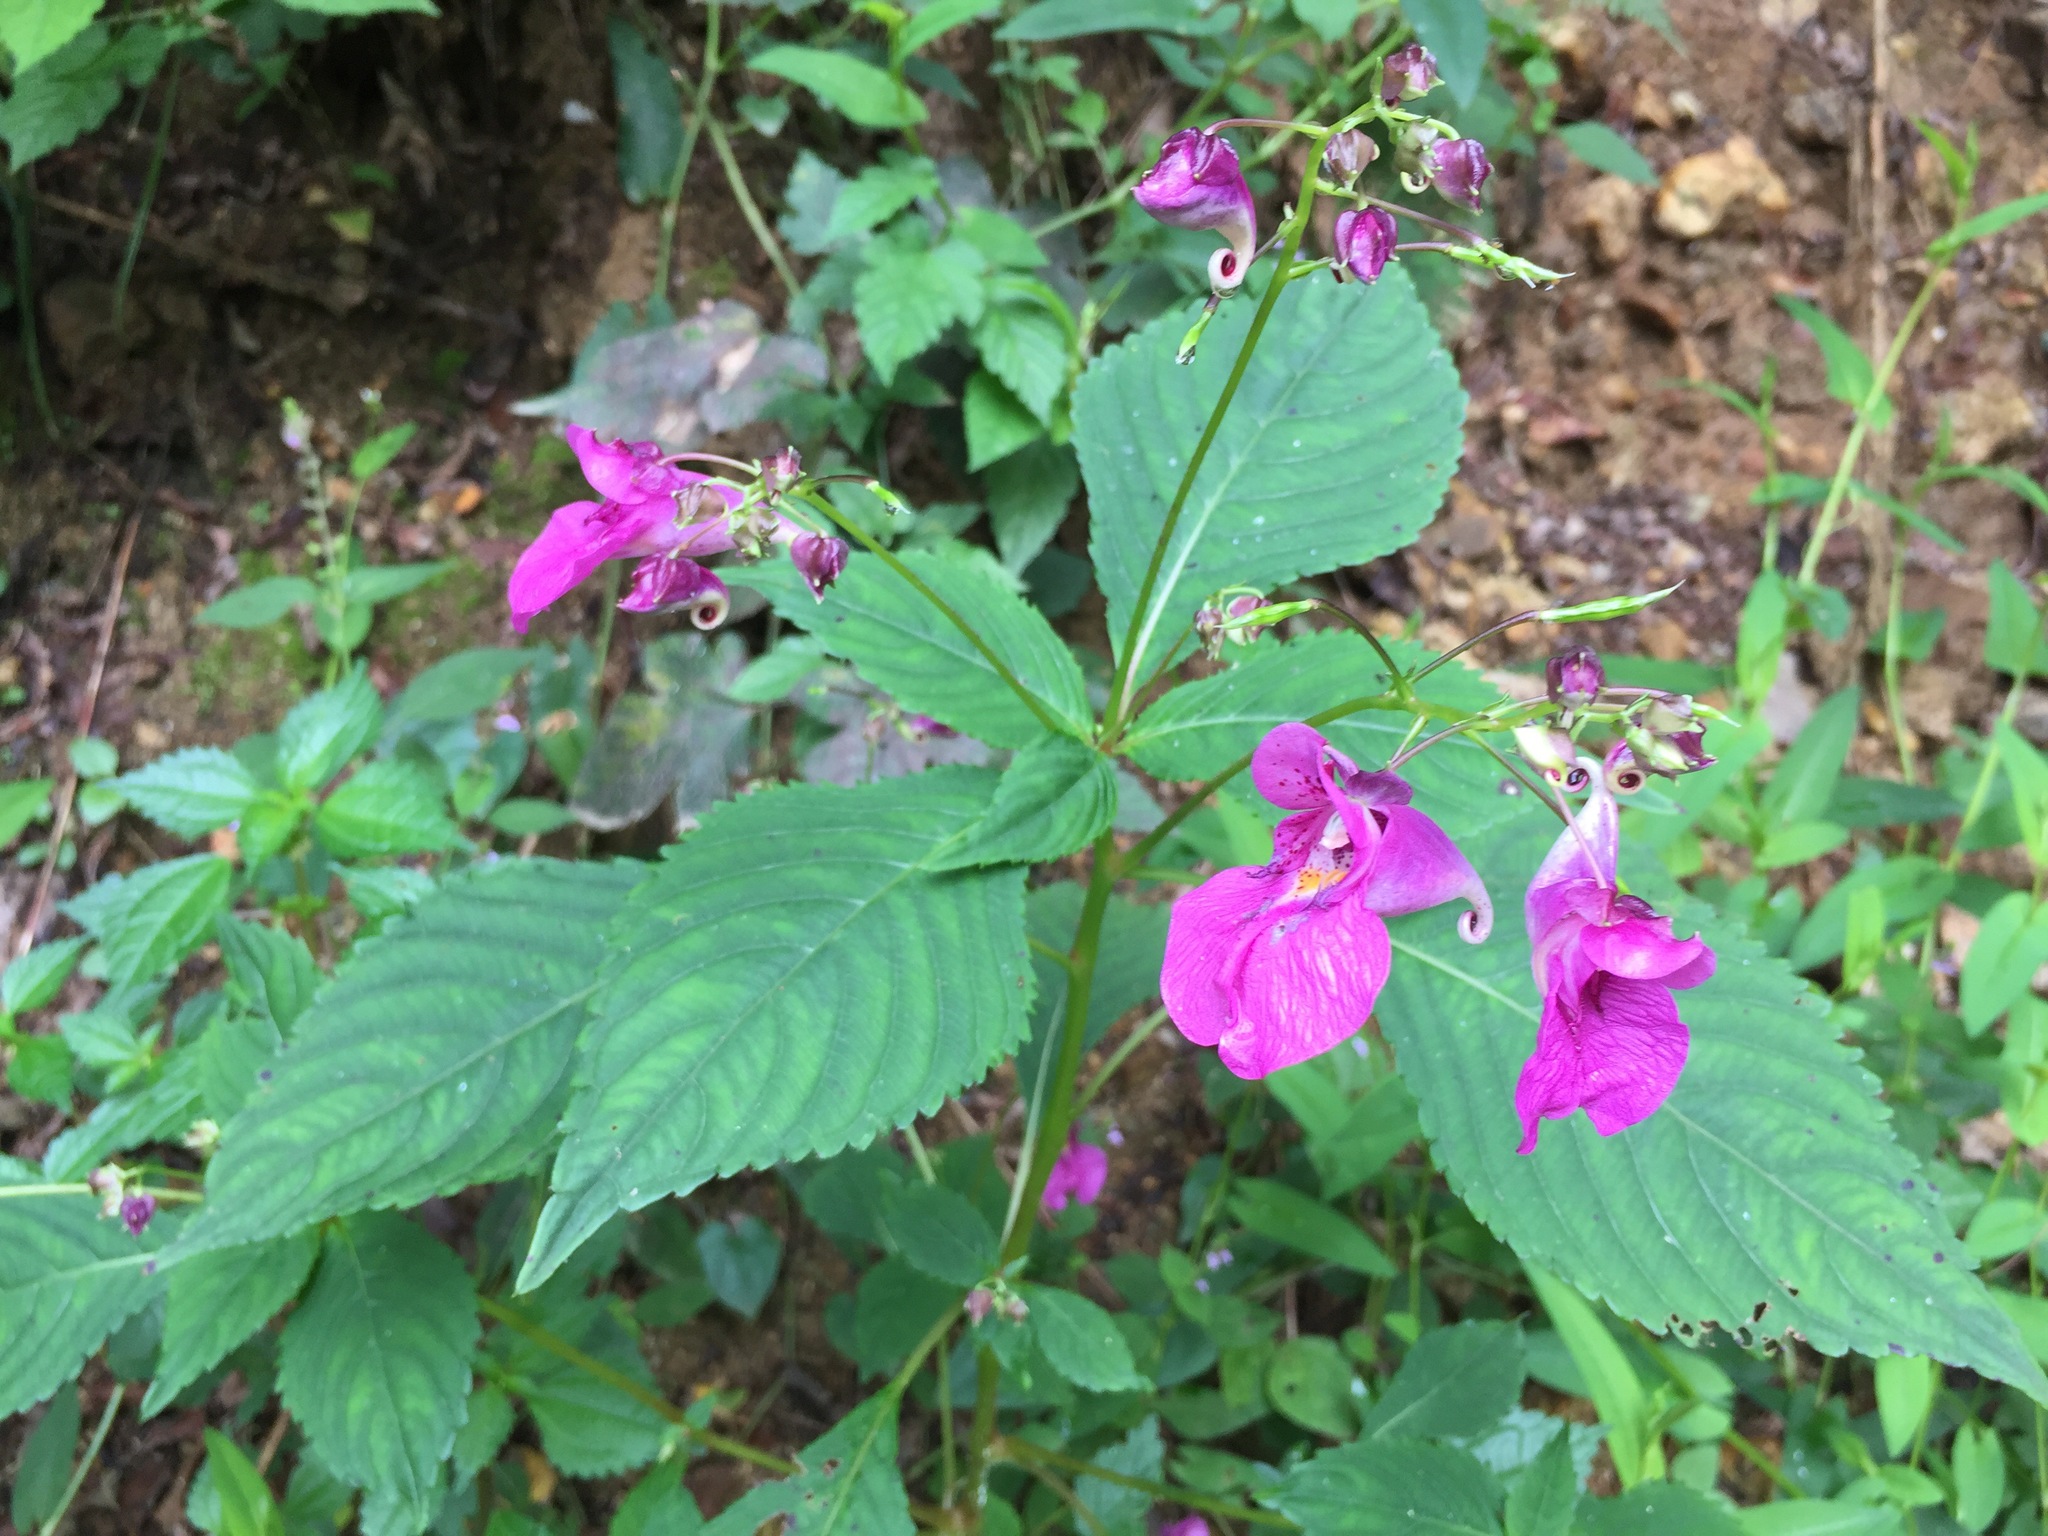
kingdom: Plantae
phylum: Tracheophyta
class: Magnoliopsida
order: Ericales
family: Balsaminaceae
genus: Impatiens
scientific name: Impatiens textorii
